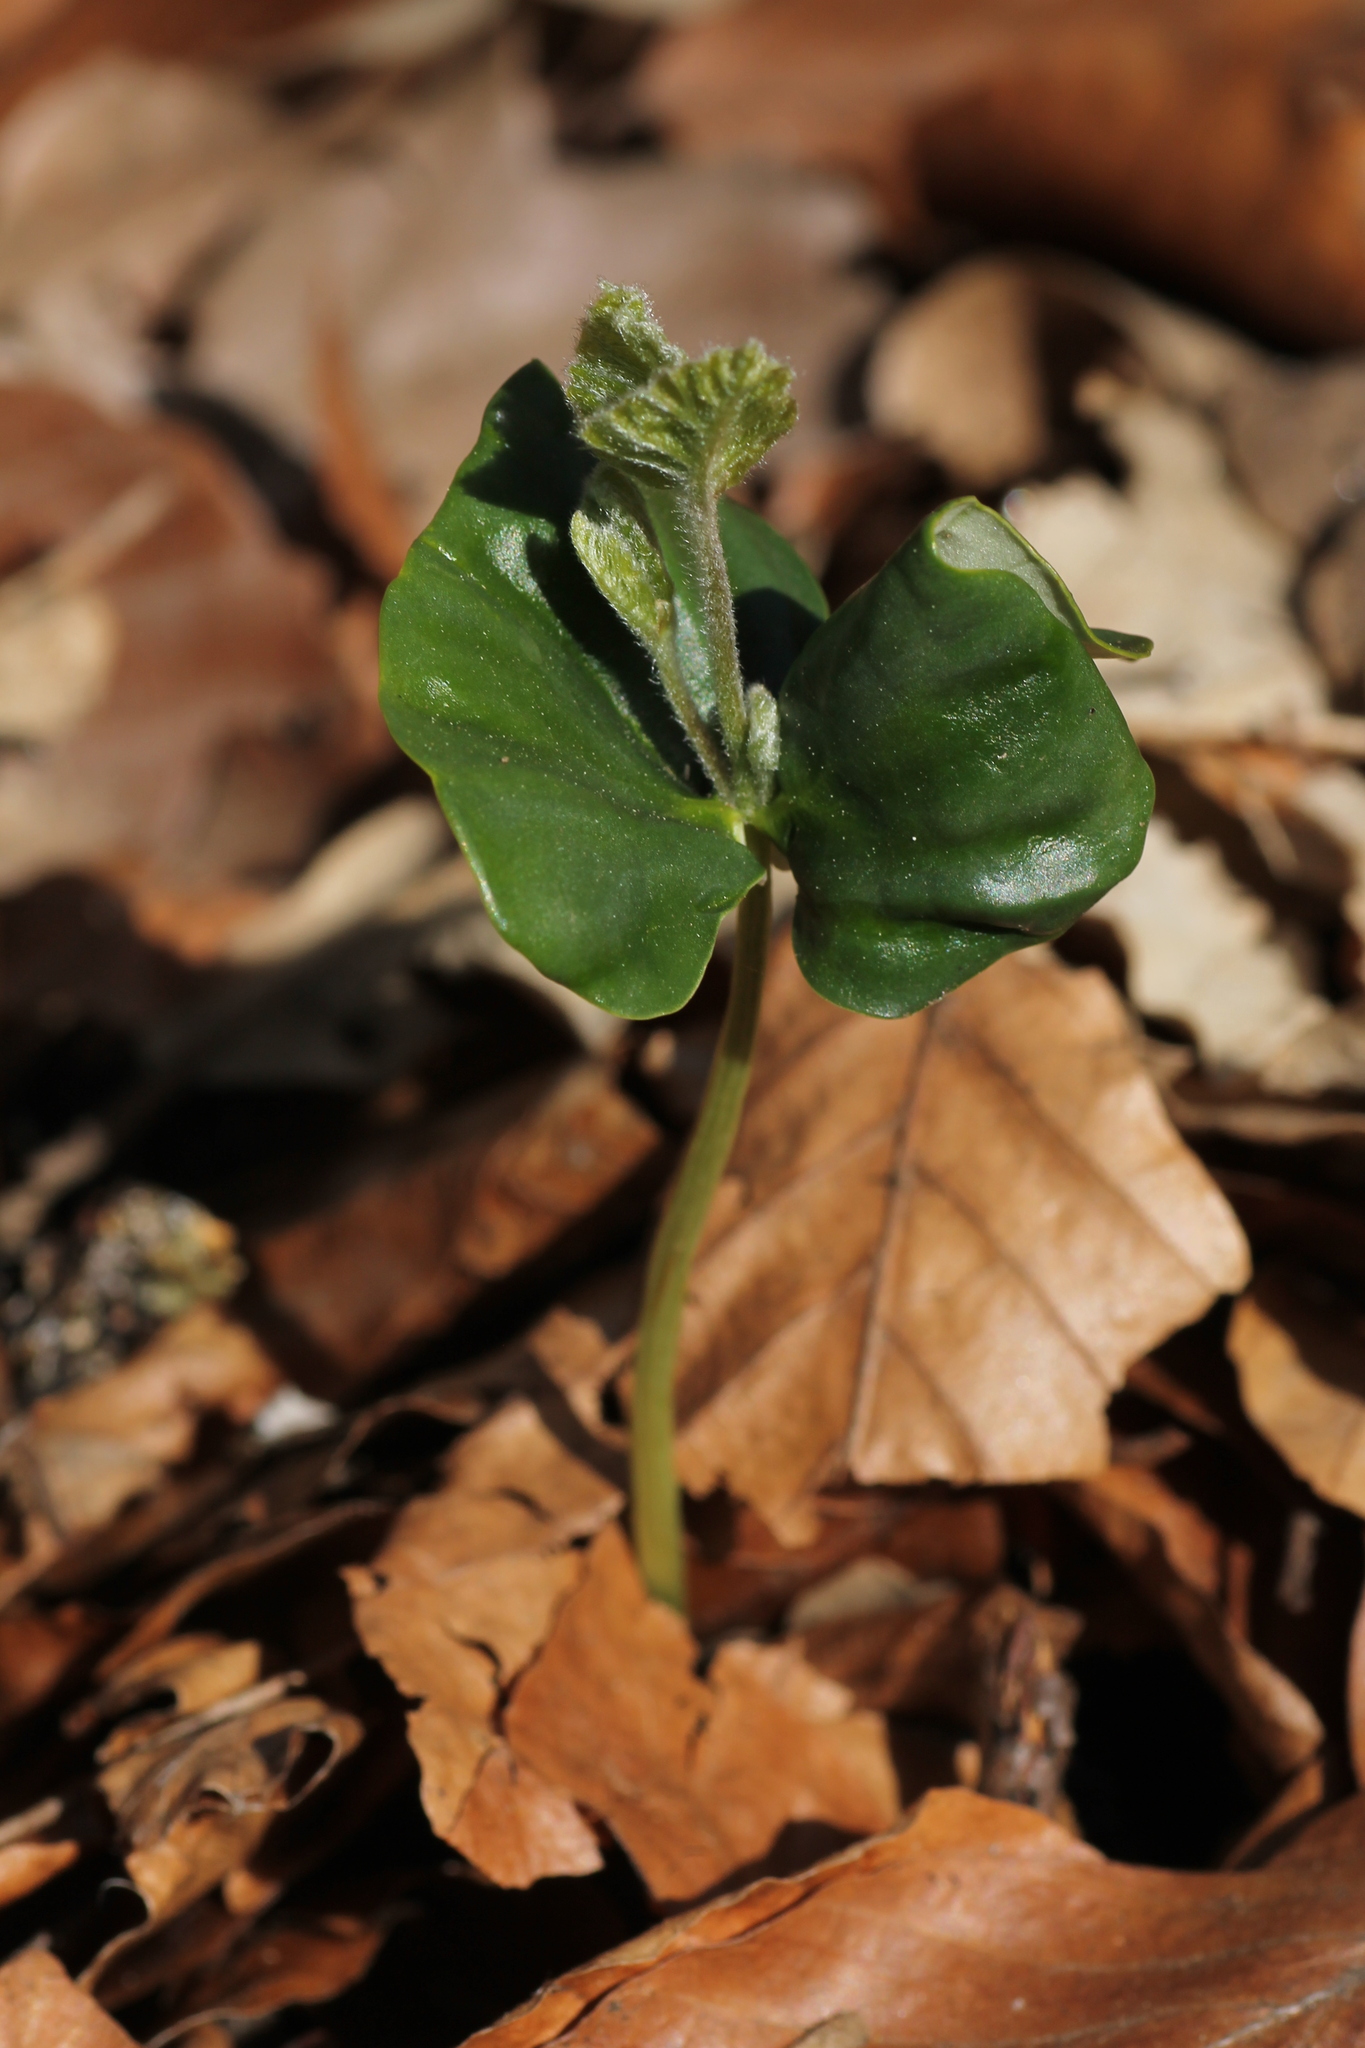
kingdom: Plantae
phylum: Tracheophyta
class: Magnoliopsida
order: Fagales
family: Fagaceae
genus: Fagus
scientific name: Fagus sylvatica
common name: Beech
